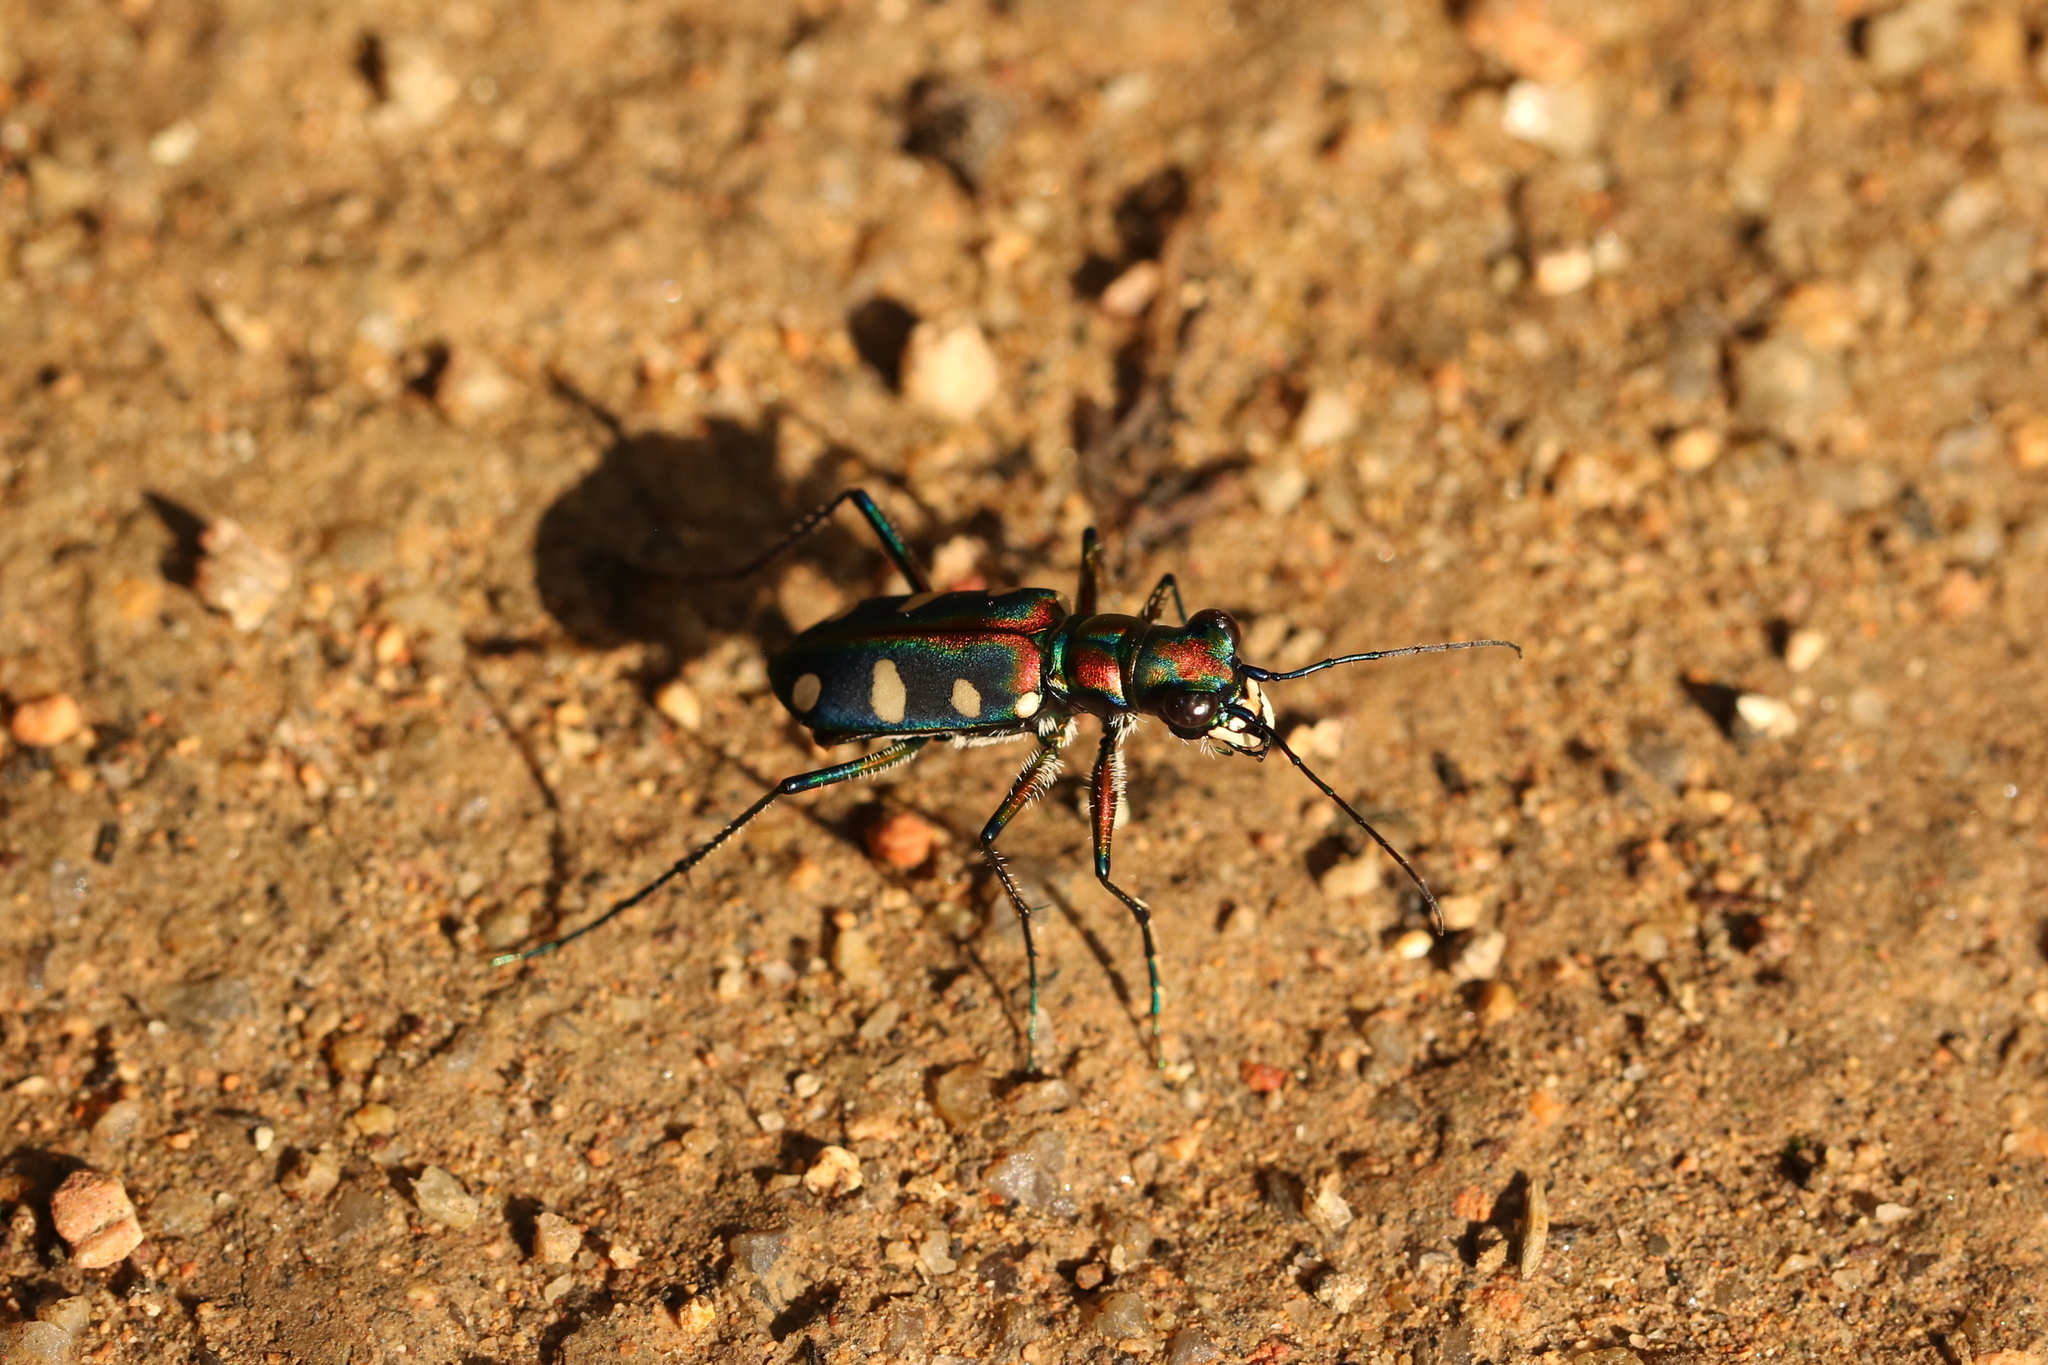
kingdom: Animalia
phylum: Arthropoda
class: Insecta
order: Coleoptera
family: Carabidae
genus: Cicindela
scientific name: Cicindela aurulenta
